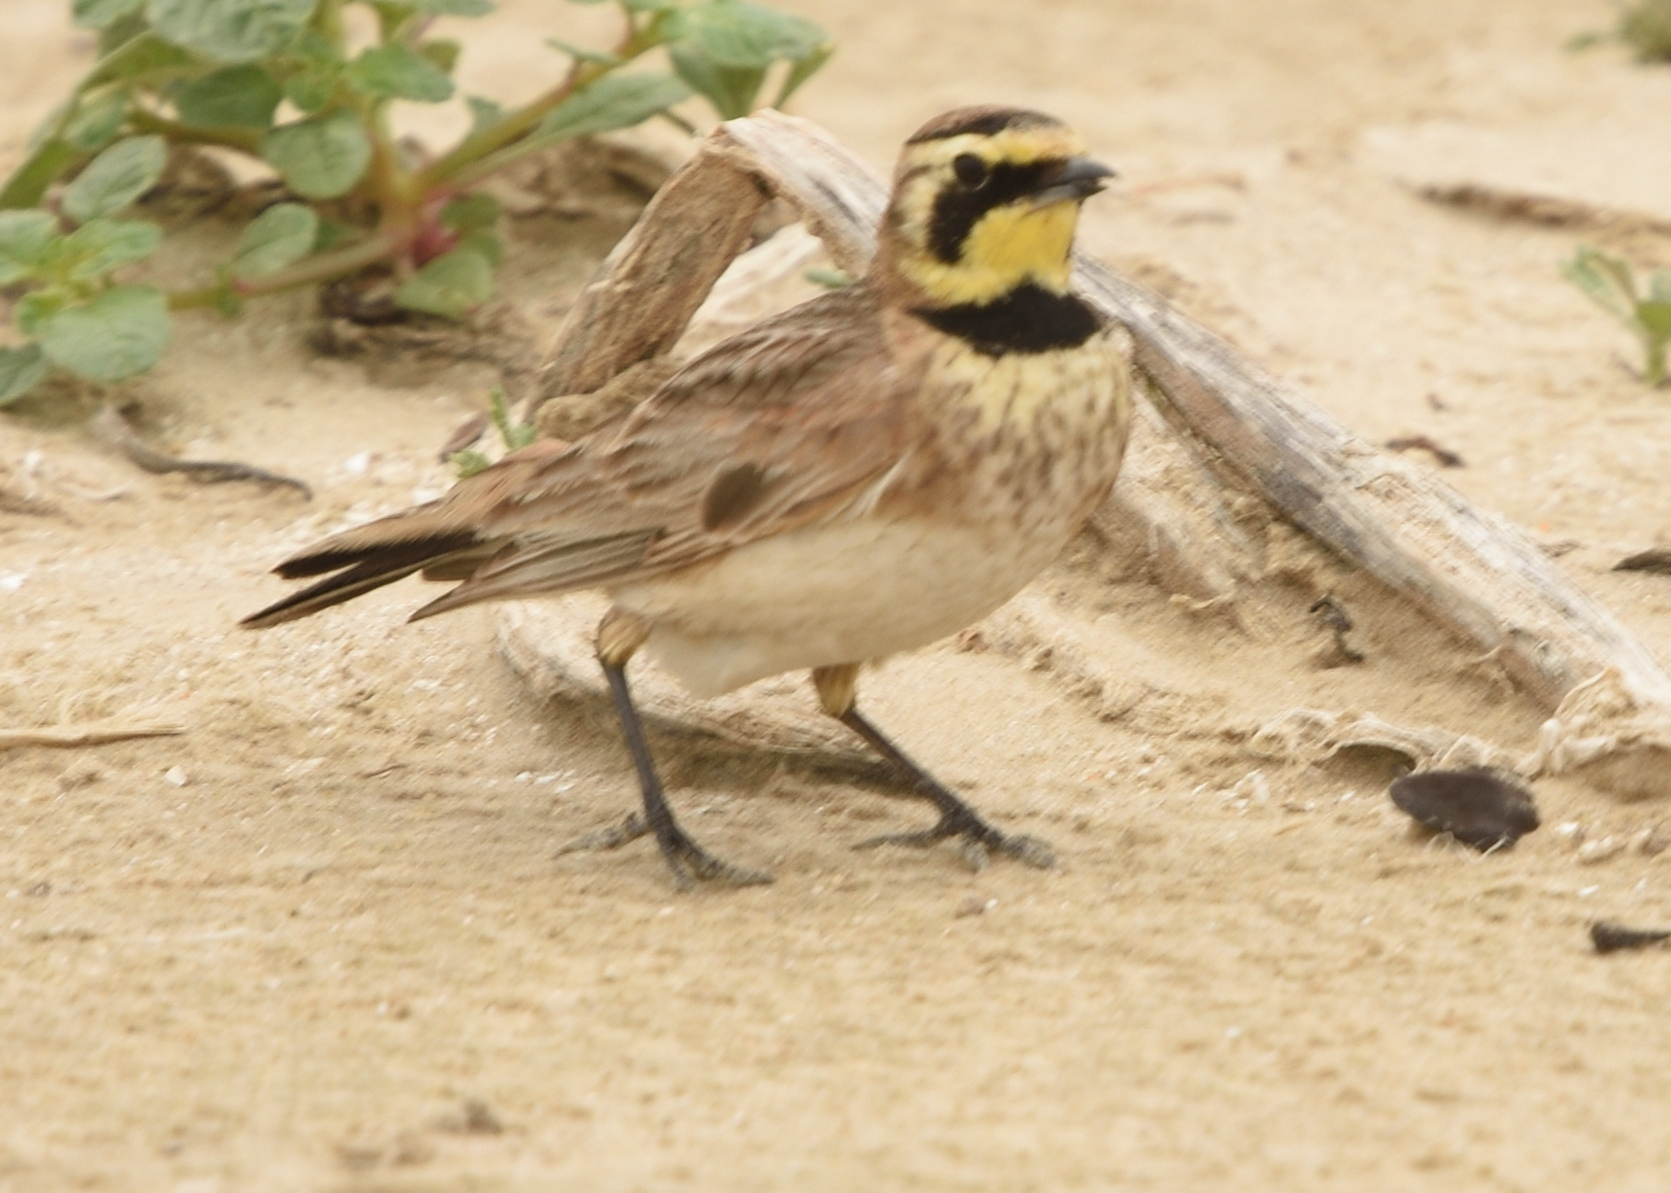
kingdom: Animalia
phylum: Chordata
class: Aves
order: Passeriformes
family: Alaudidae
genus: Eremophila
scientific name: Eremophila alpestris
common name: Horned lark
